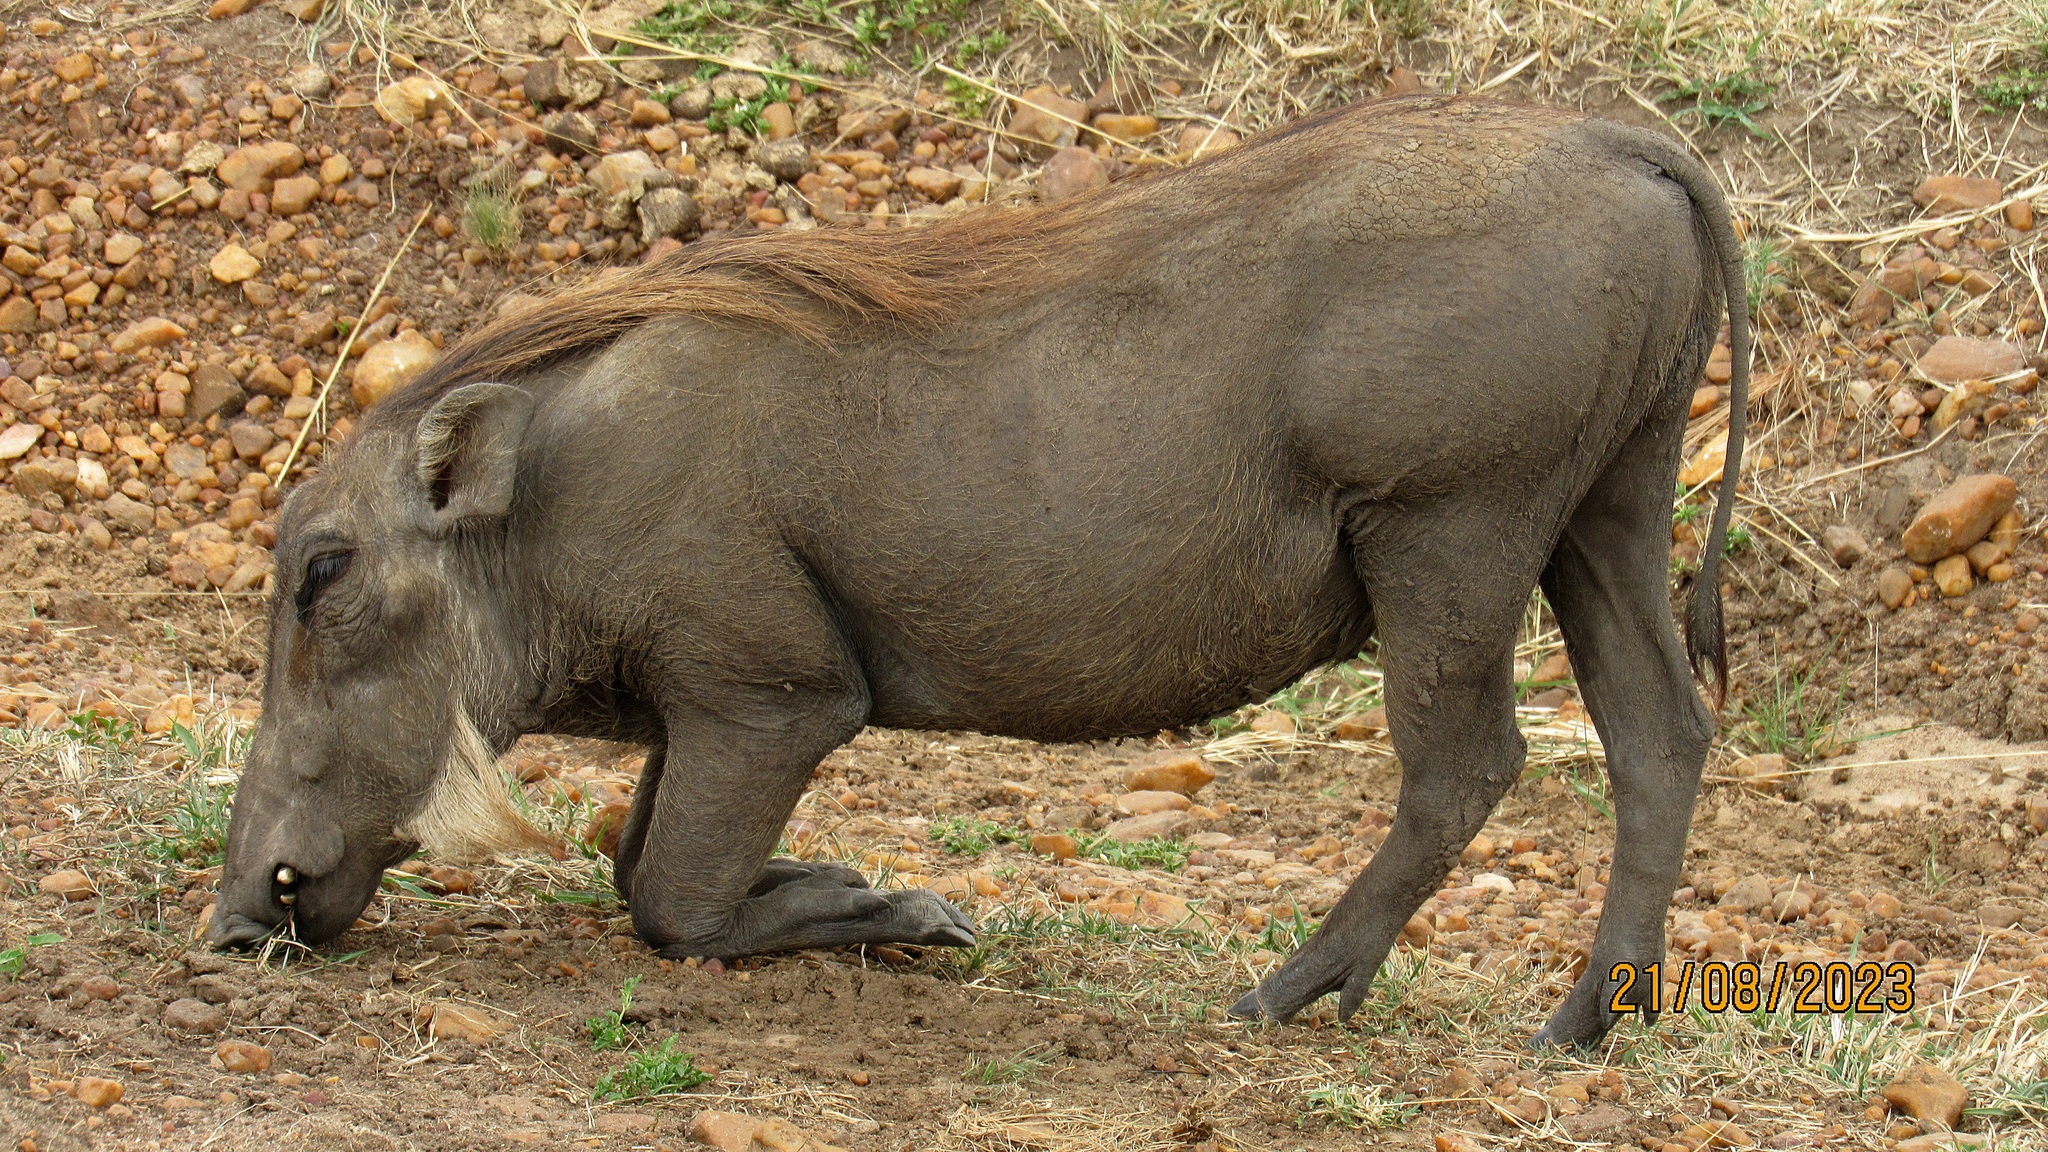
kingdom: Animalia
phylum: Chordata
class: Mammalia
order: Artiodactyla
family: Suidae
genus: Phacochoerus
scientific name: Phacochoerus africanus
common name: Common warthog
